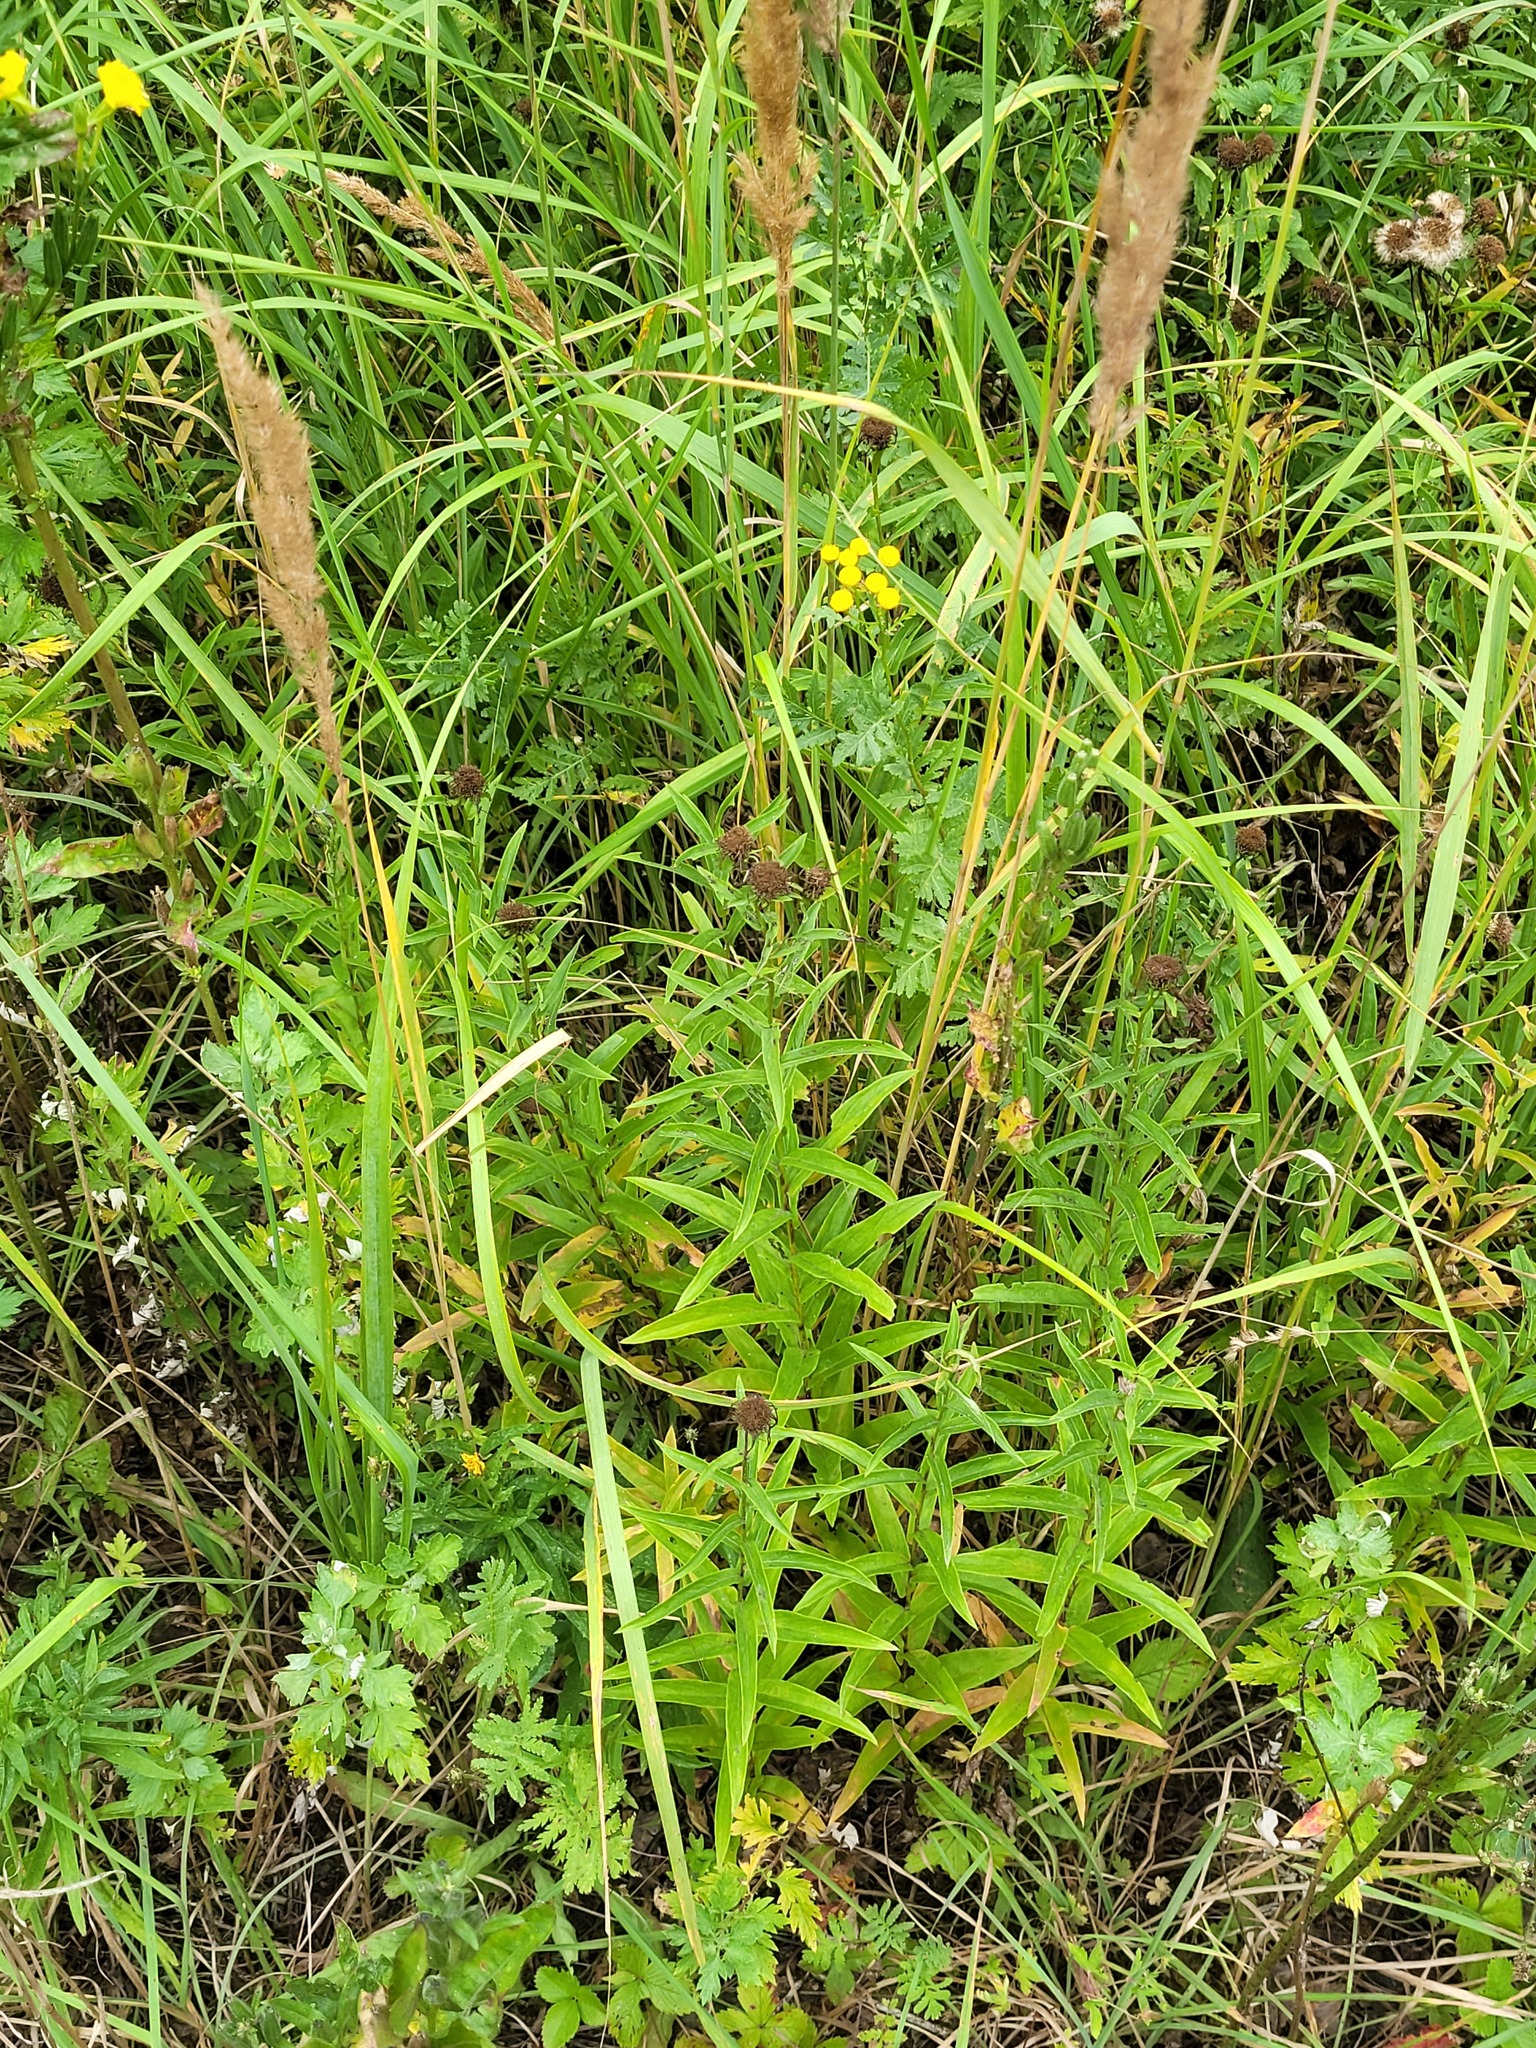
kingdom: Plantae
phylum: Tracheophyta
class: Magnoliopsida
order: Asterales
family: Asteraceae
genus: Pentanema
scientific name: Pentanema salicinum
